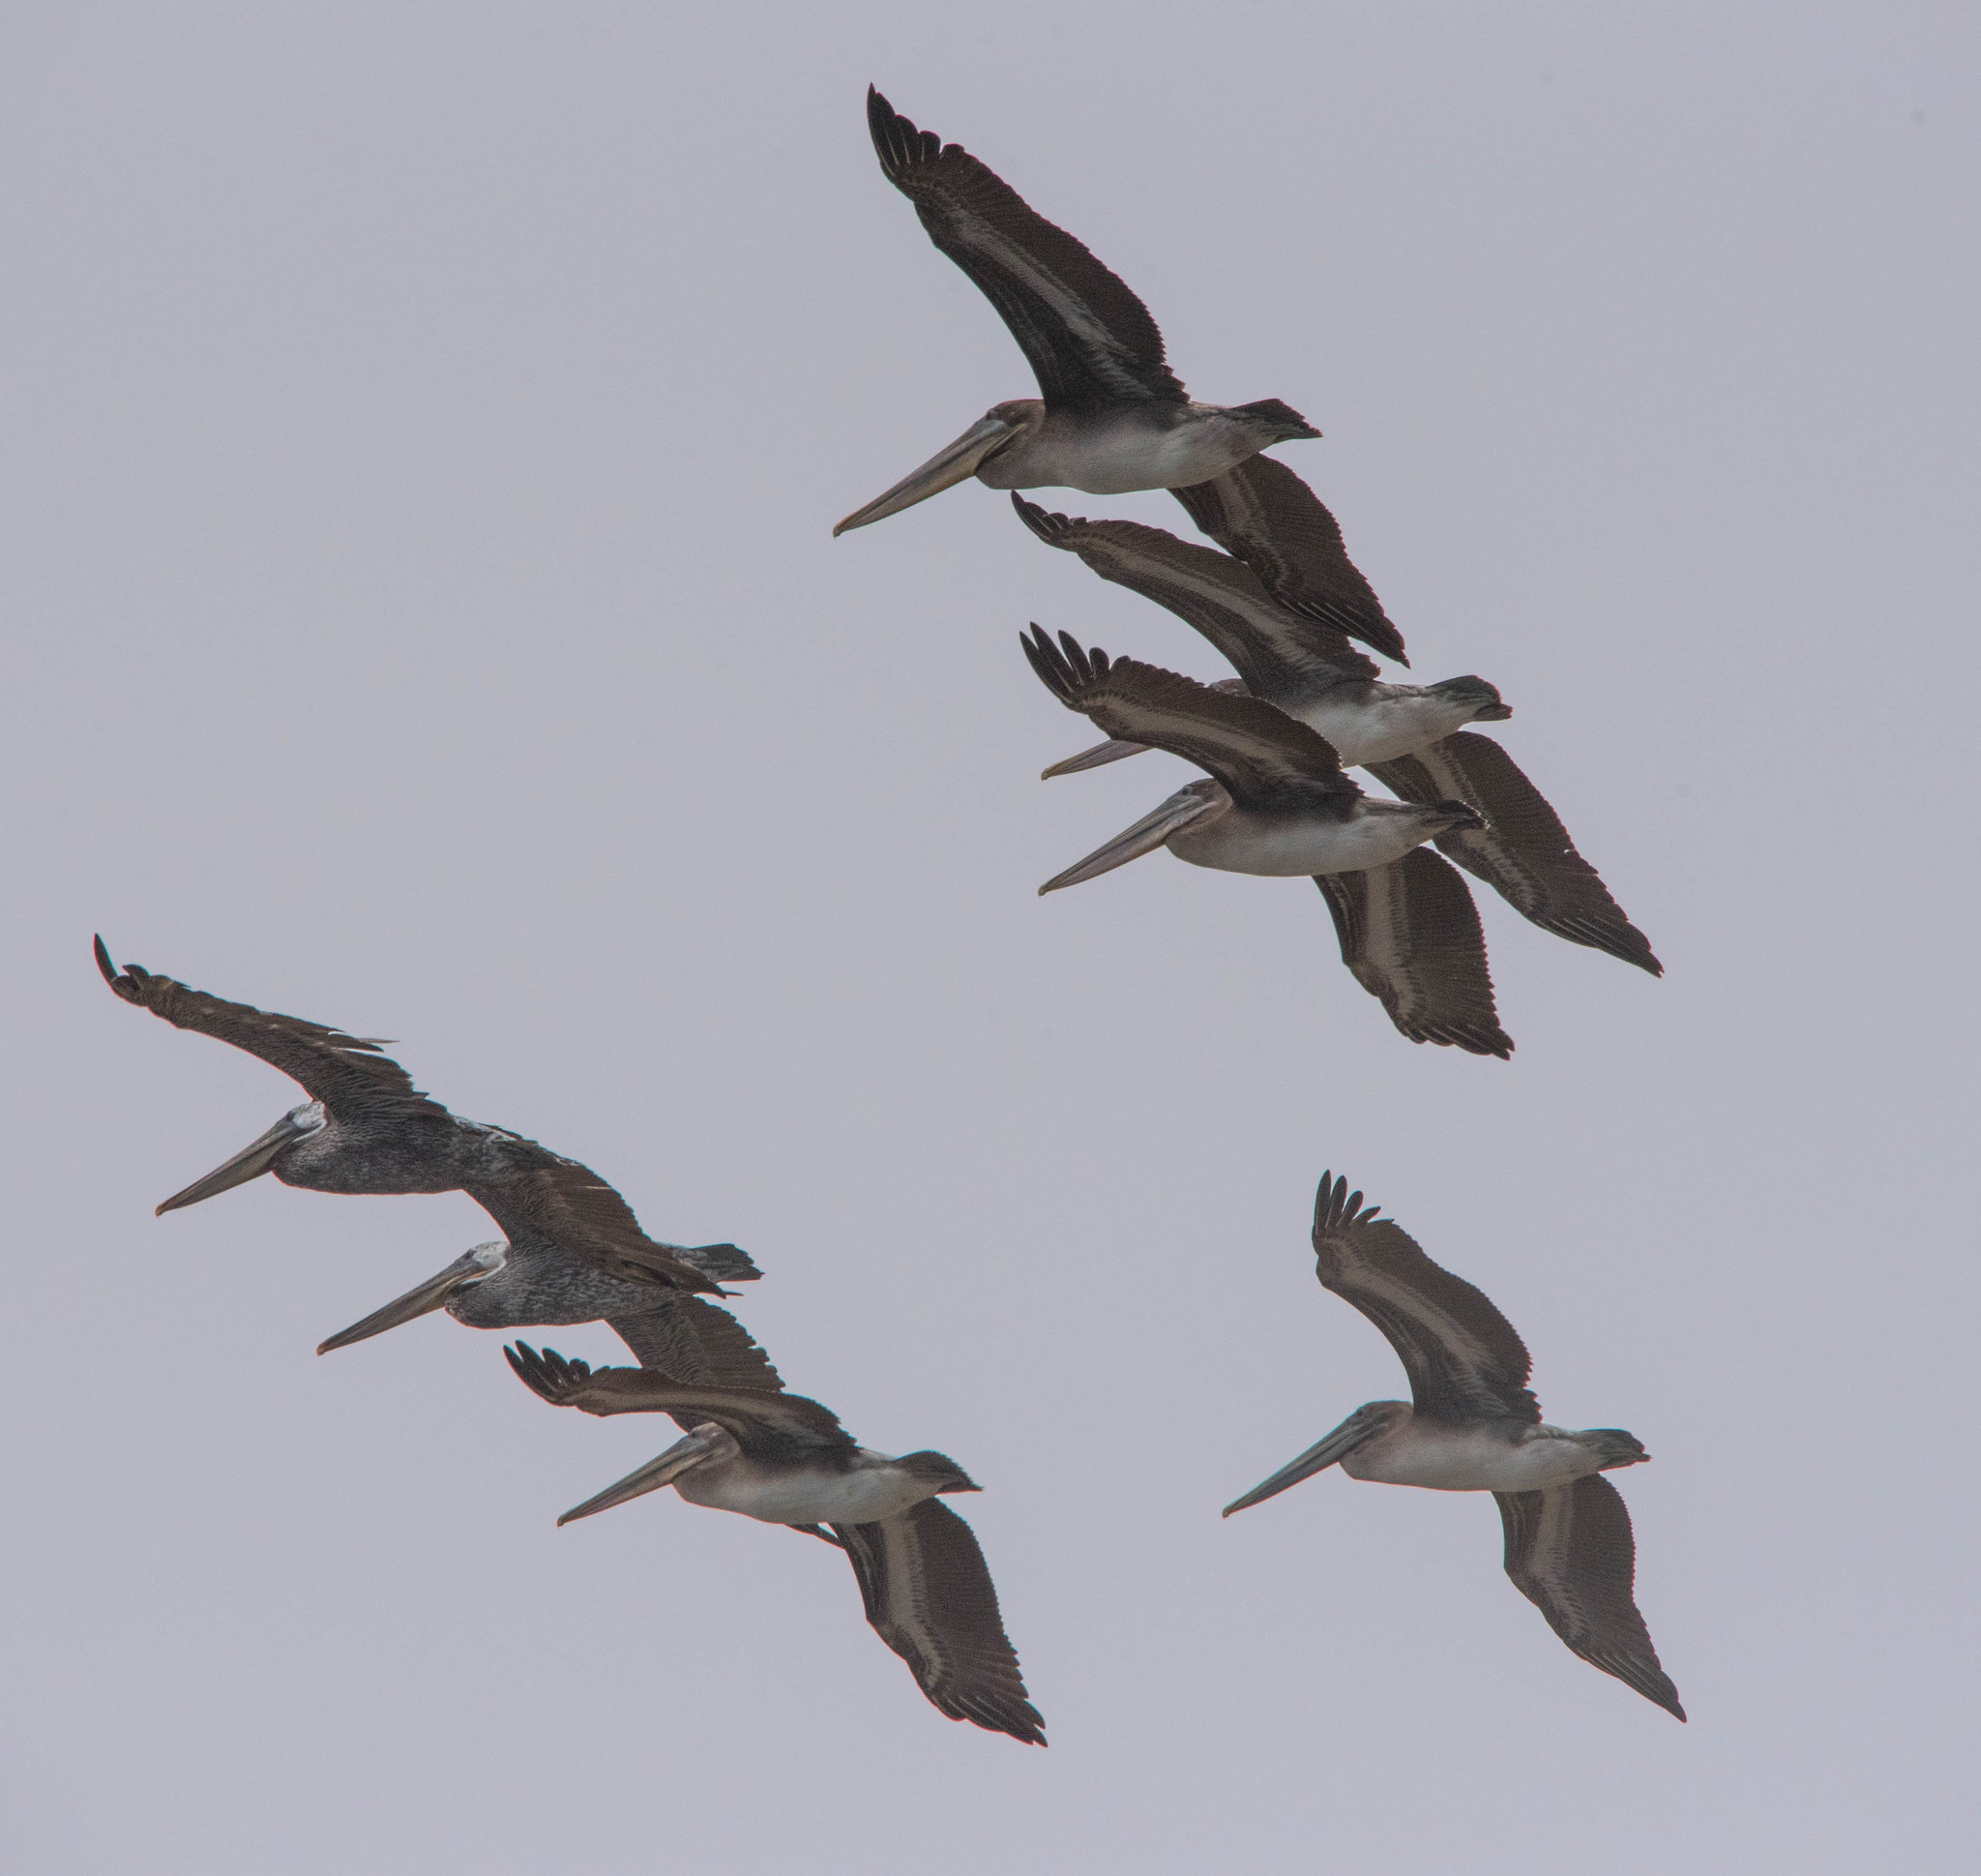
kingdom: Animalia
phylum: Chordata
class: Aves
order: Pelecaniformes
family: Pelecanidae
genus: Pelecanus
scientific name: Pelecanus occidentalis
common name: Brown pelican
